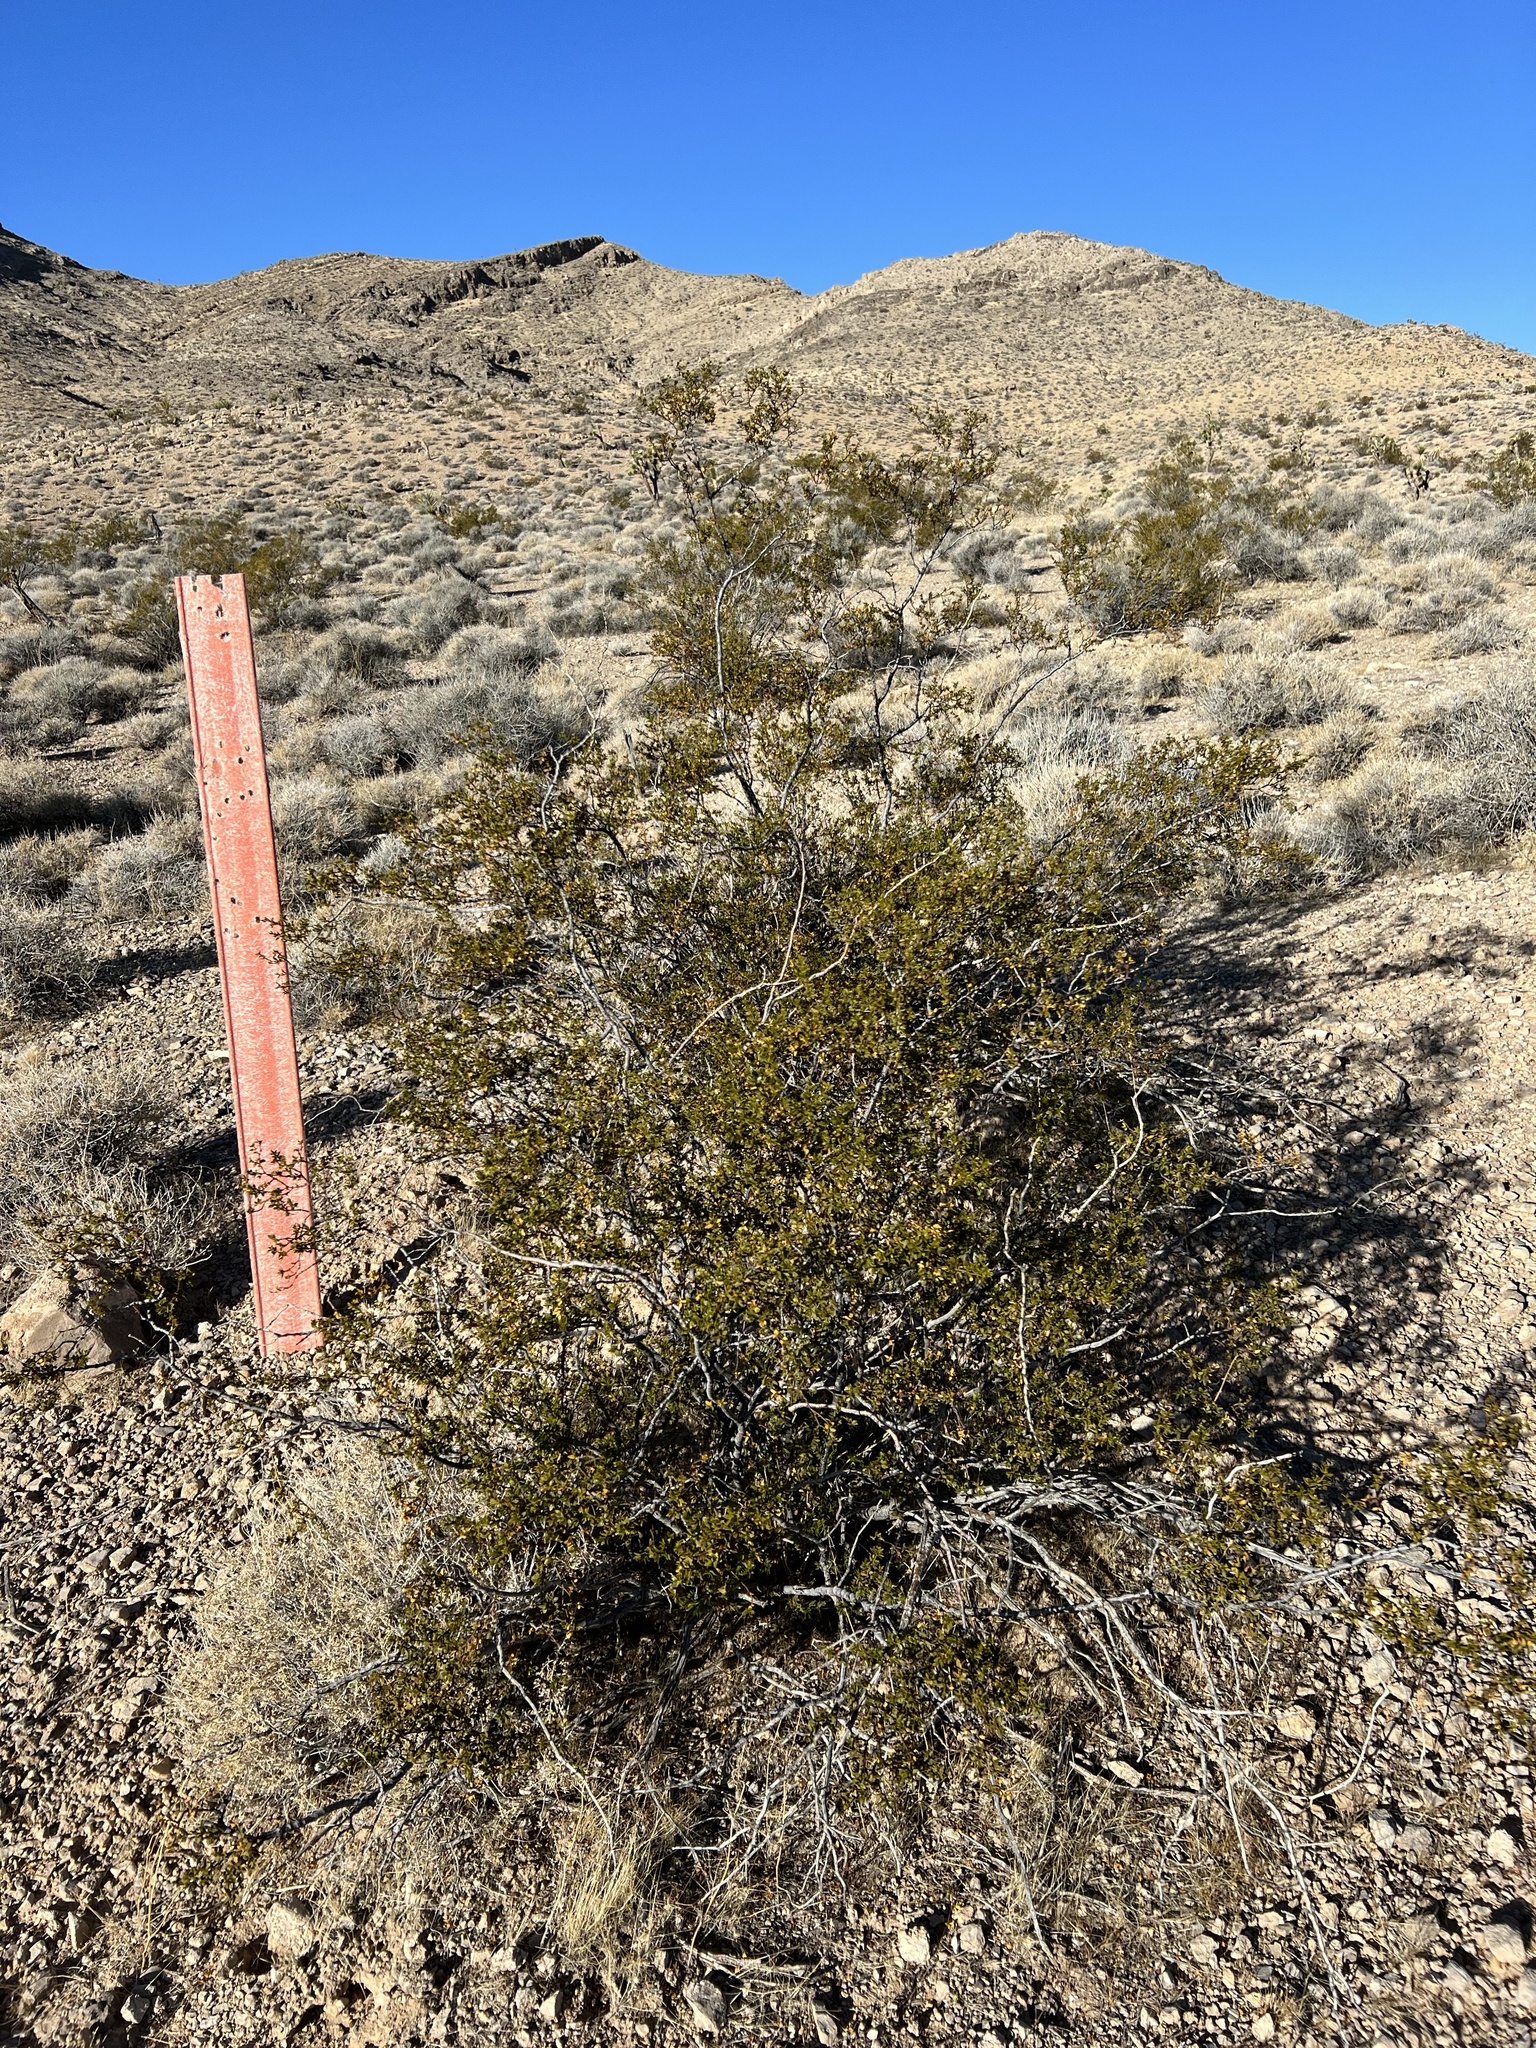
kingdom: Plantae
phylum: Tracheophyta
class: Magnoliopsida
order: Zygophyllales
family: Zygophyllaceae
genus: Larrea
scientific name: Larrea tridentata
